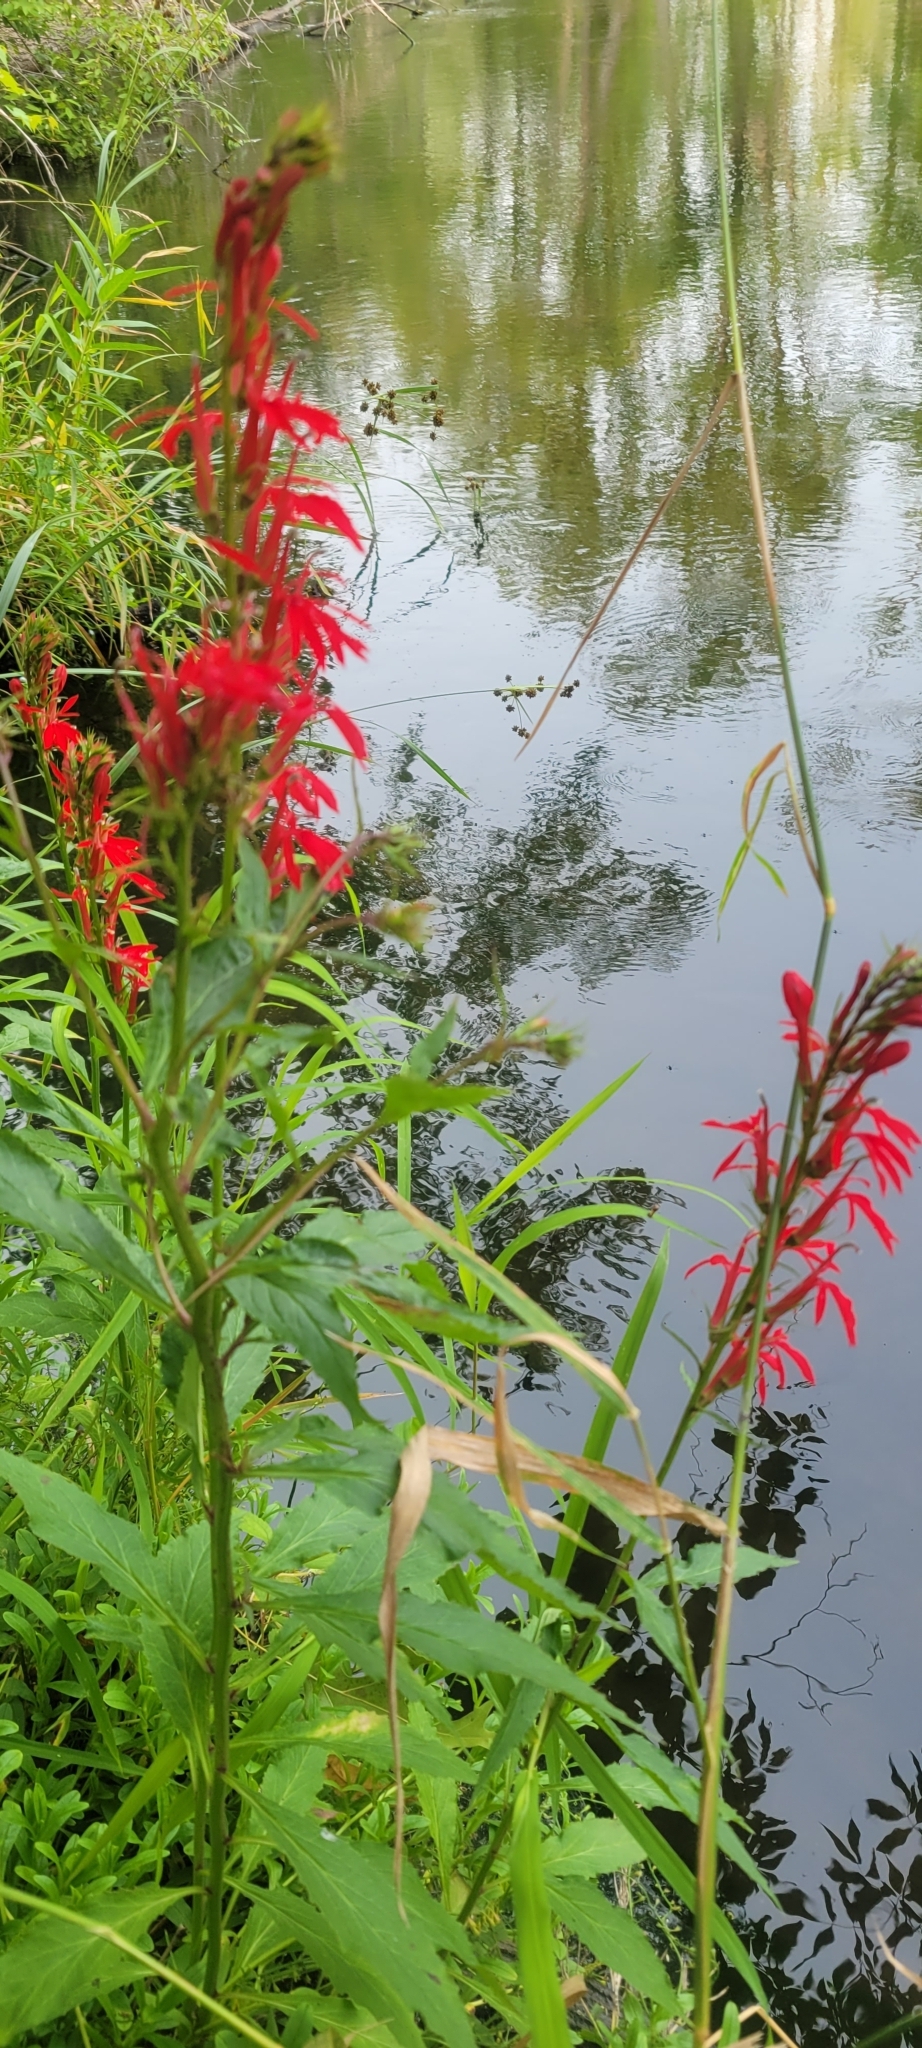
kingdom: Plantae
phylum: Tracheophyta
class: Magnoliopsida
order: Asterales
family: Campanulaceae
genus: Lobelia
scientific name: Lobelia cardinalis
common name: Cardinal flower
